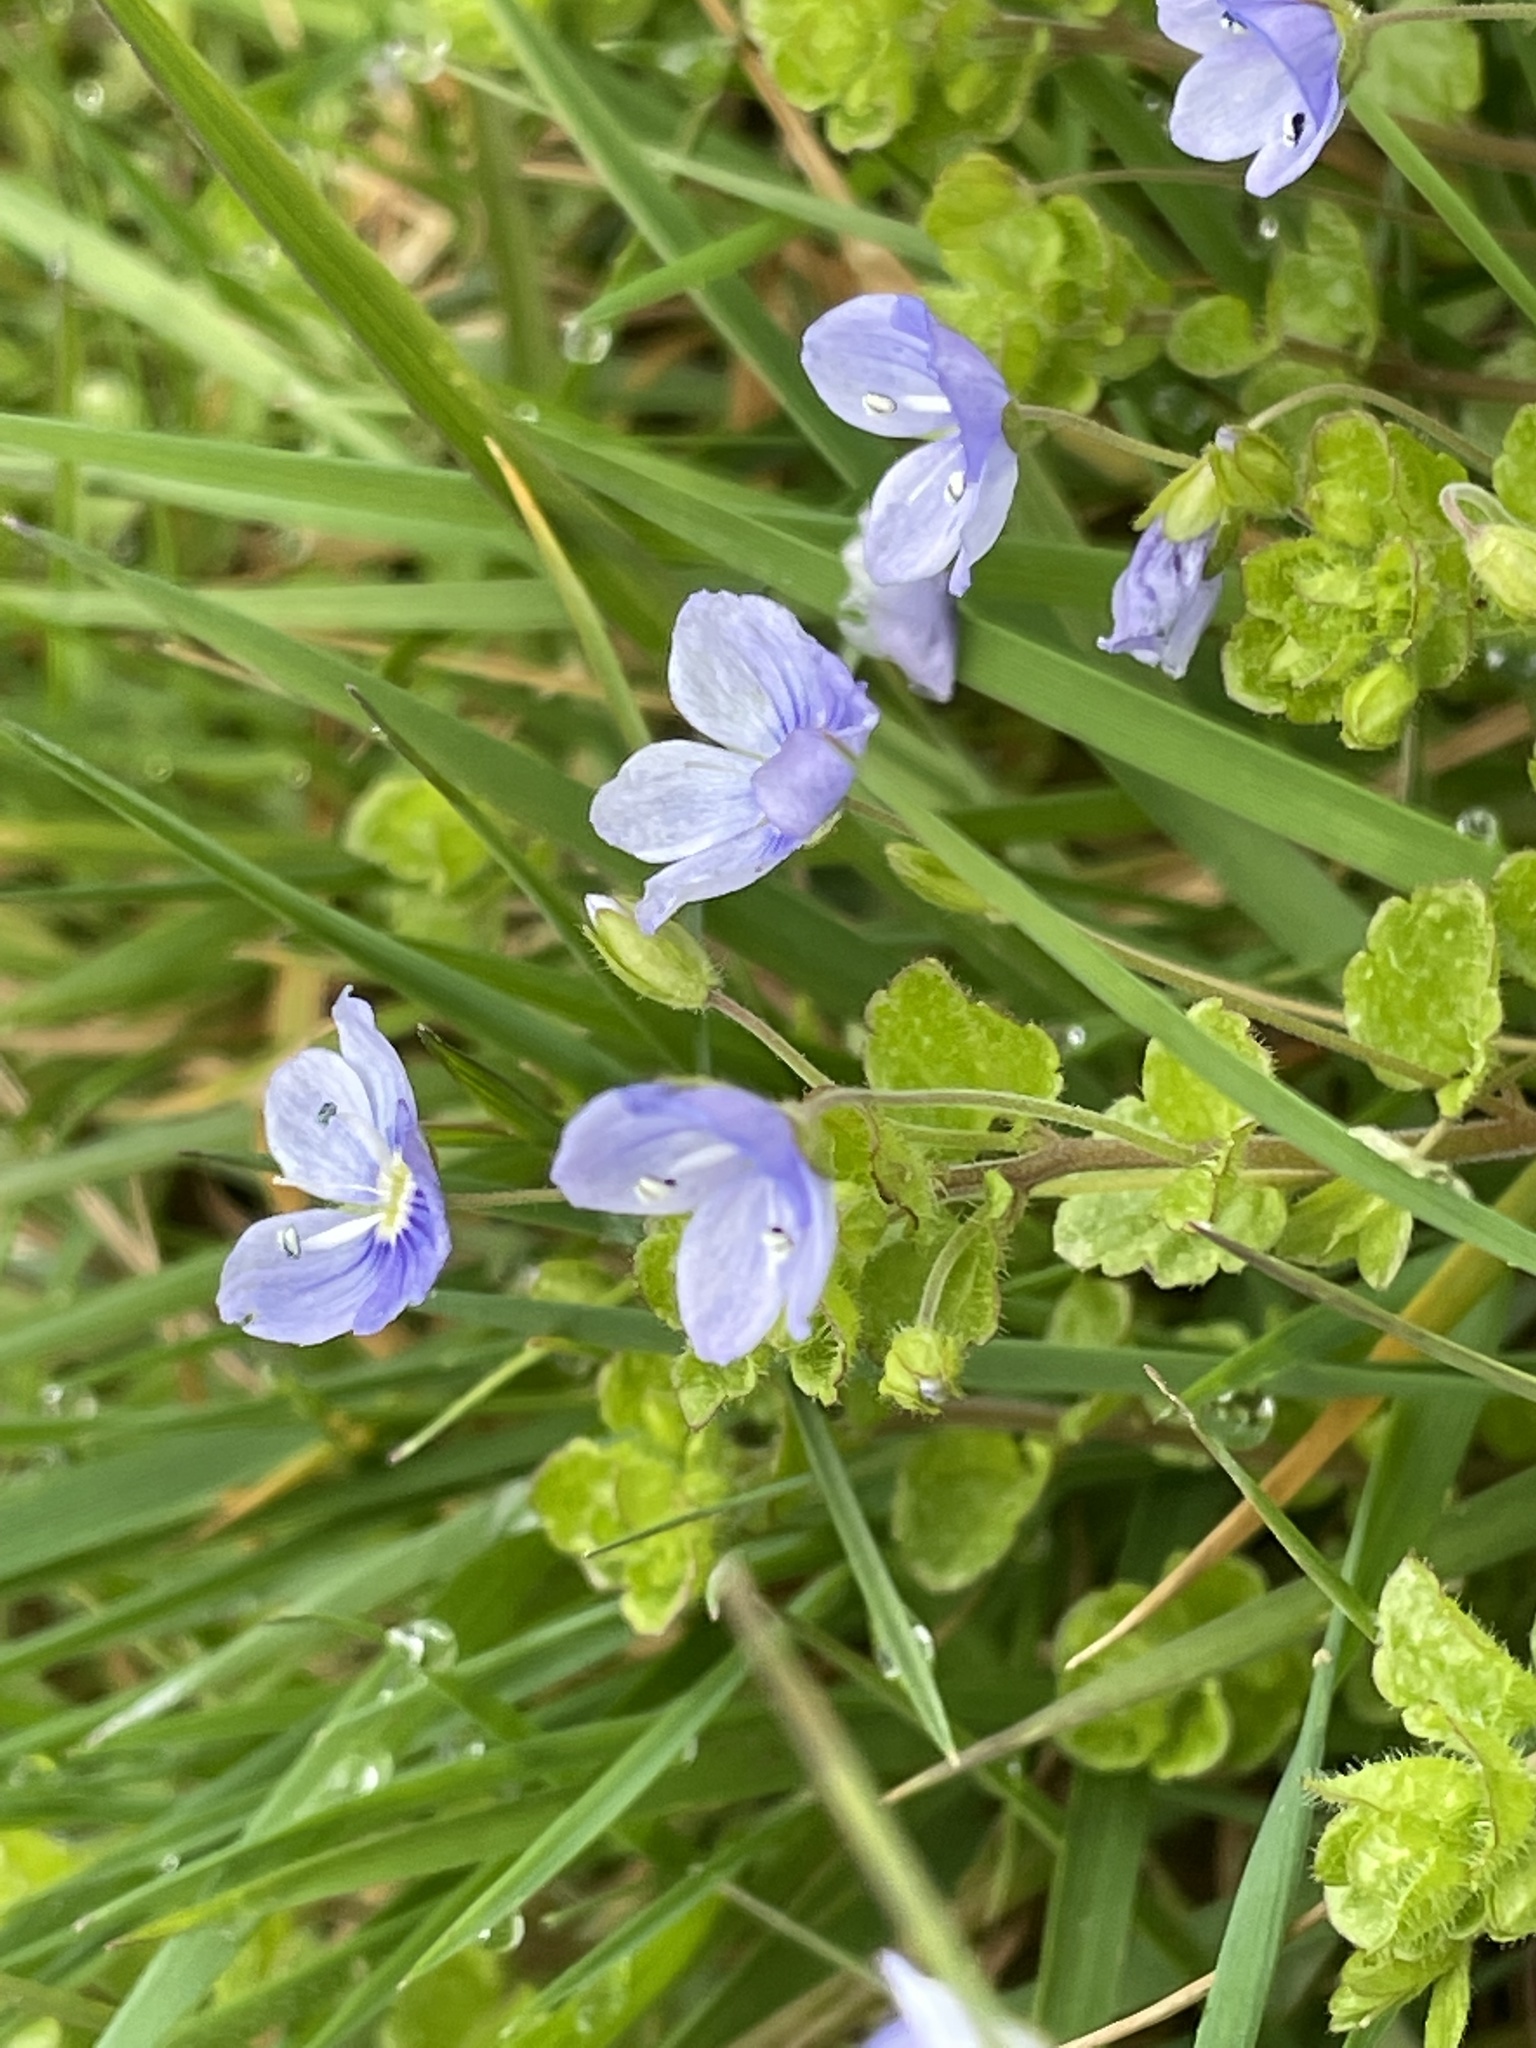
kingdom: Plantae
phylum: Tracheophyta
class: Magnoliopsida
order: Lamiales
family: Plantaginaceae
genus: Veronica
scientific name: Veronica filiformis
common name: Slender speedwell
